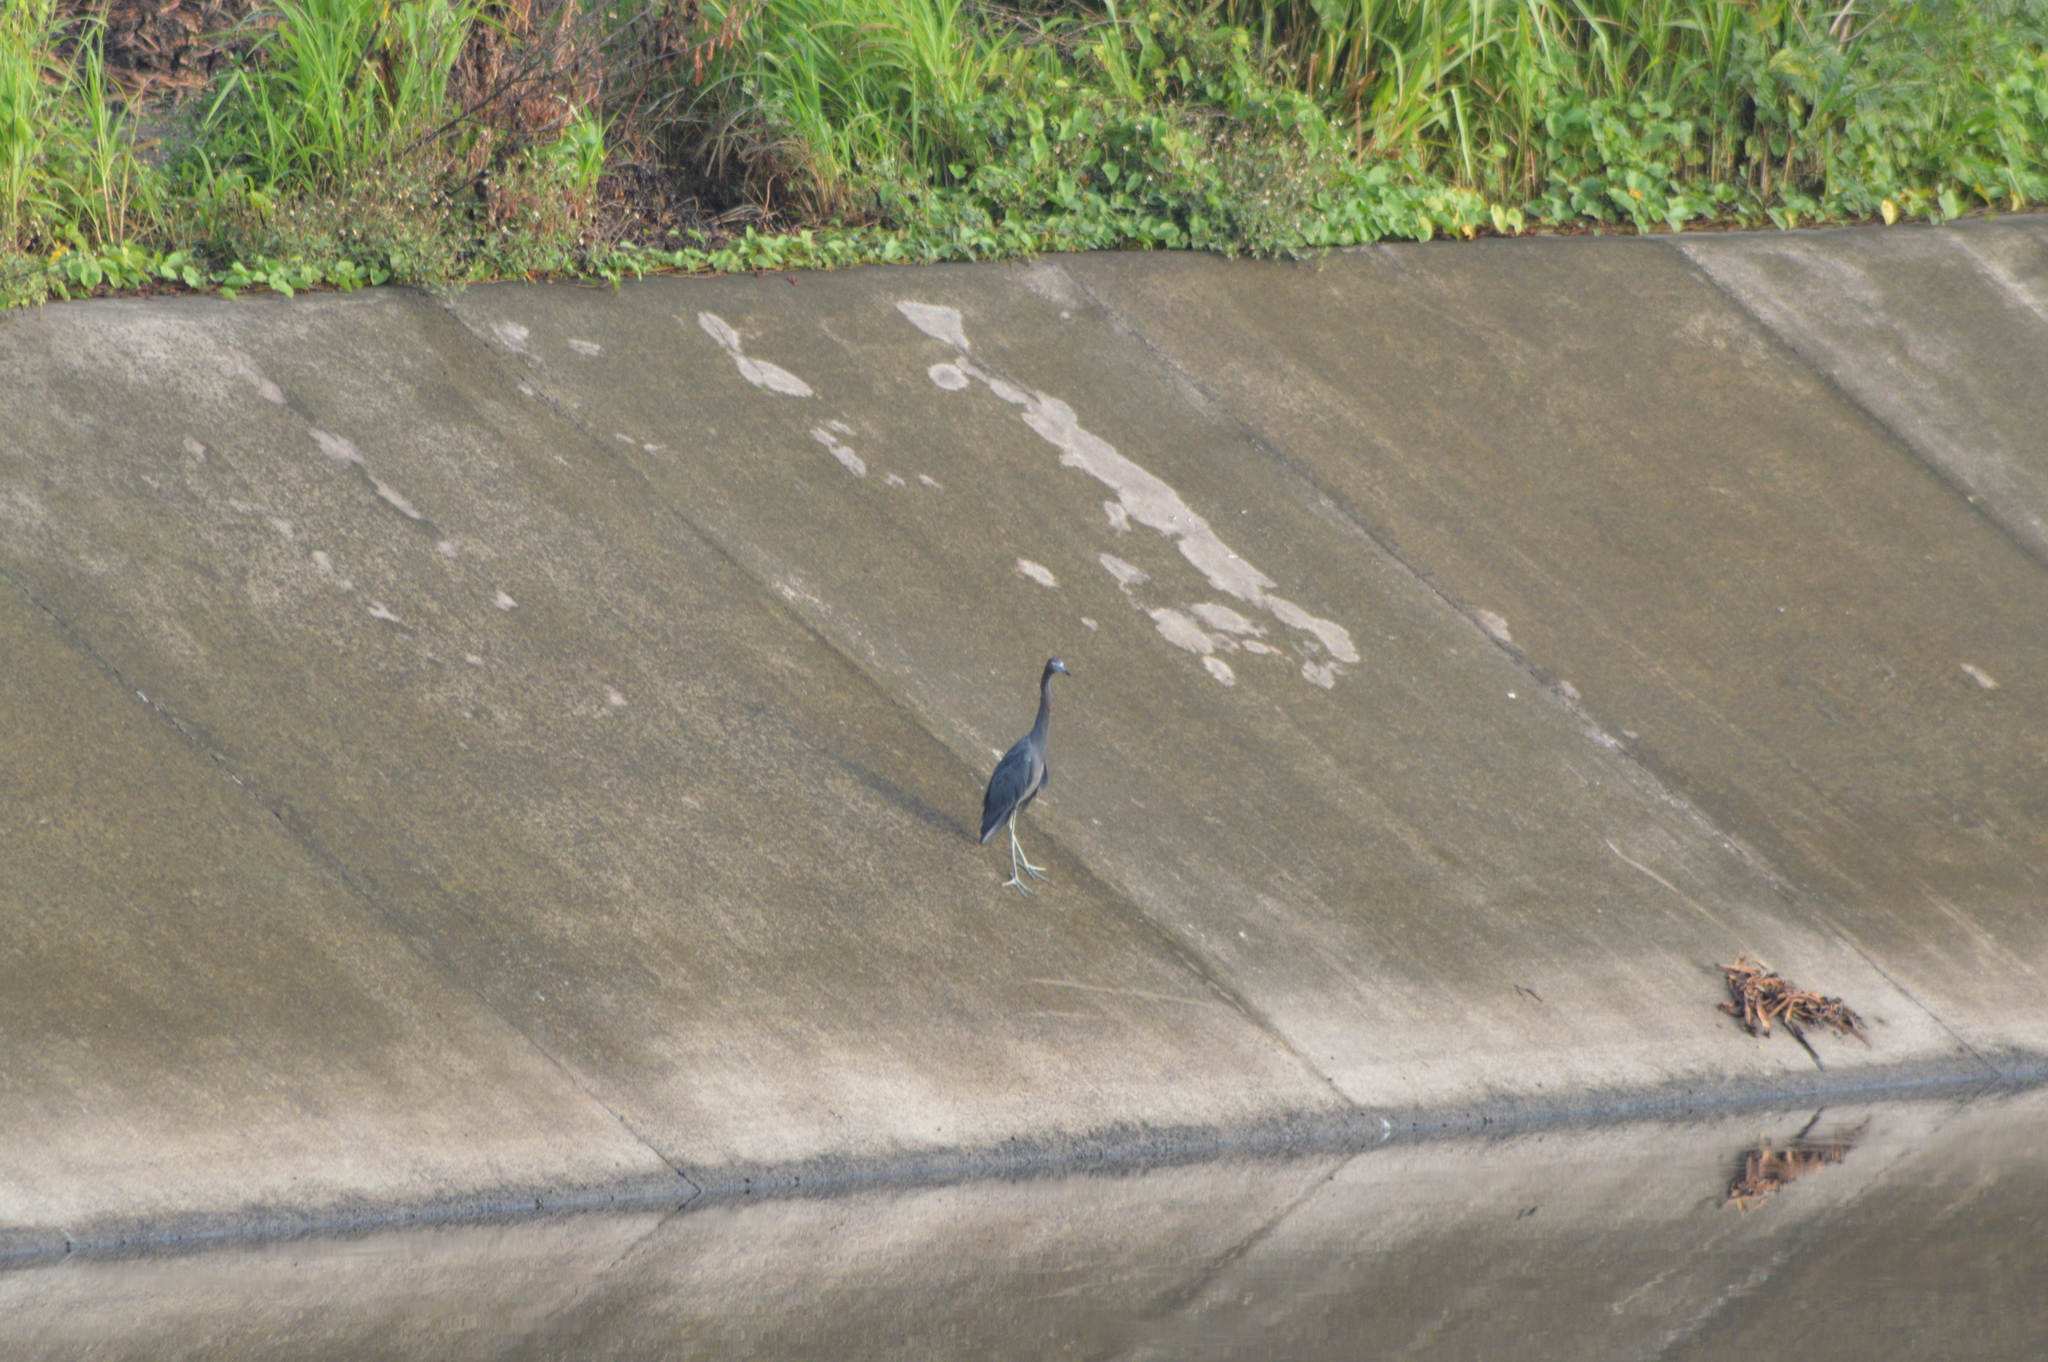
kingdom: Animalia
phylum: Chordata
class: Aves
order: Pelecaniformes
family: Ardeidae
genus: Egretta
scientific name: Egretta caerulea
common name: Little blue heron
